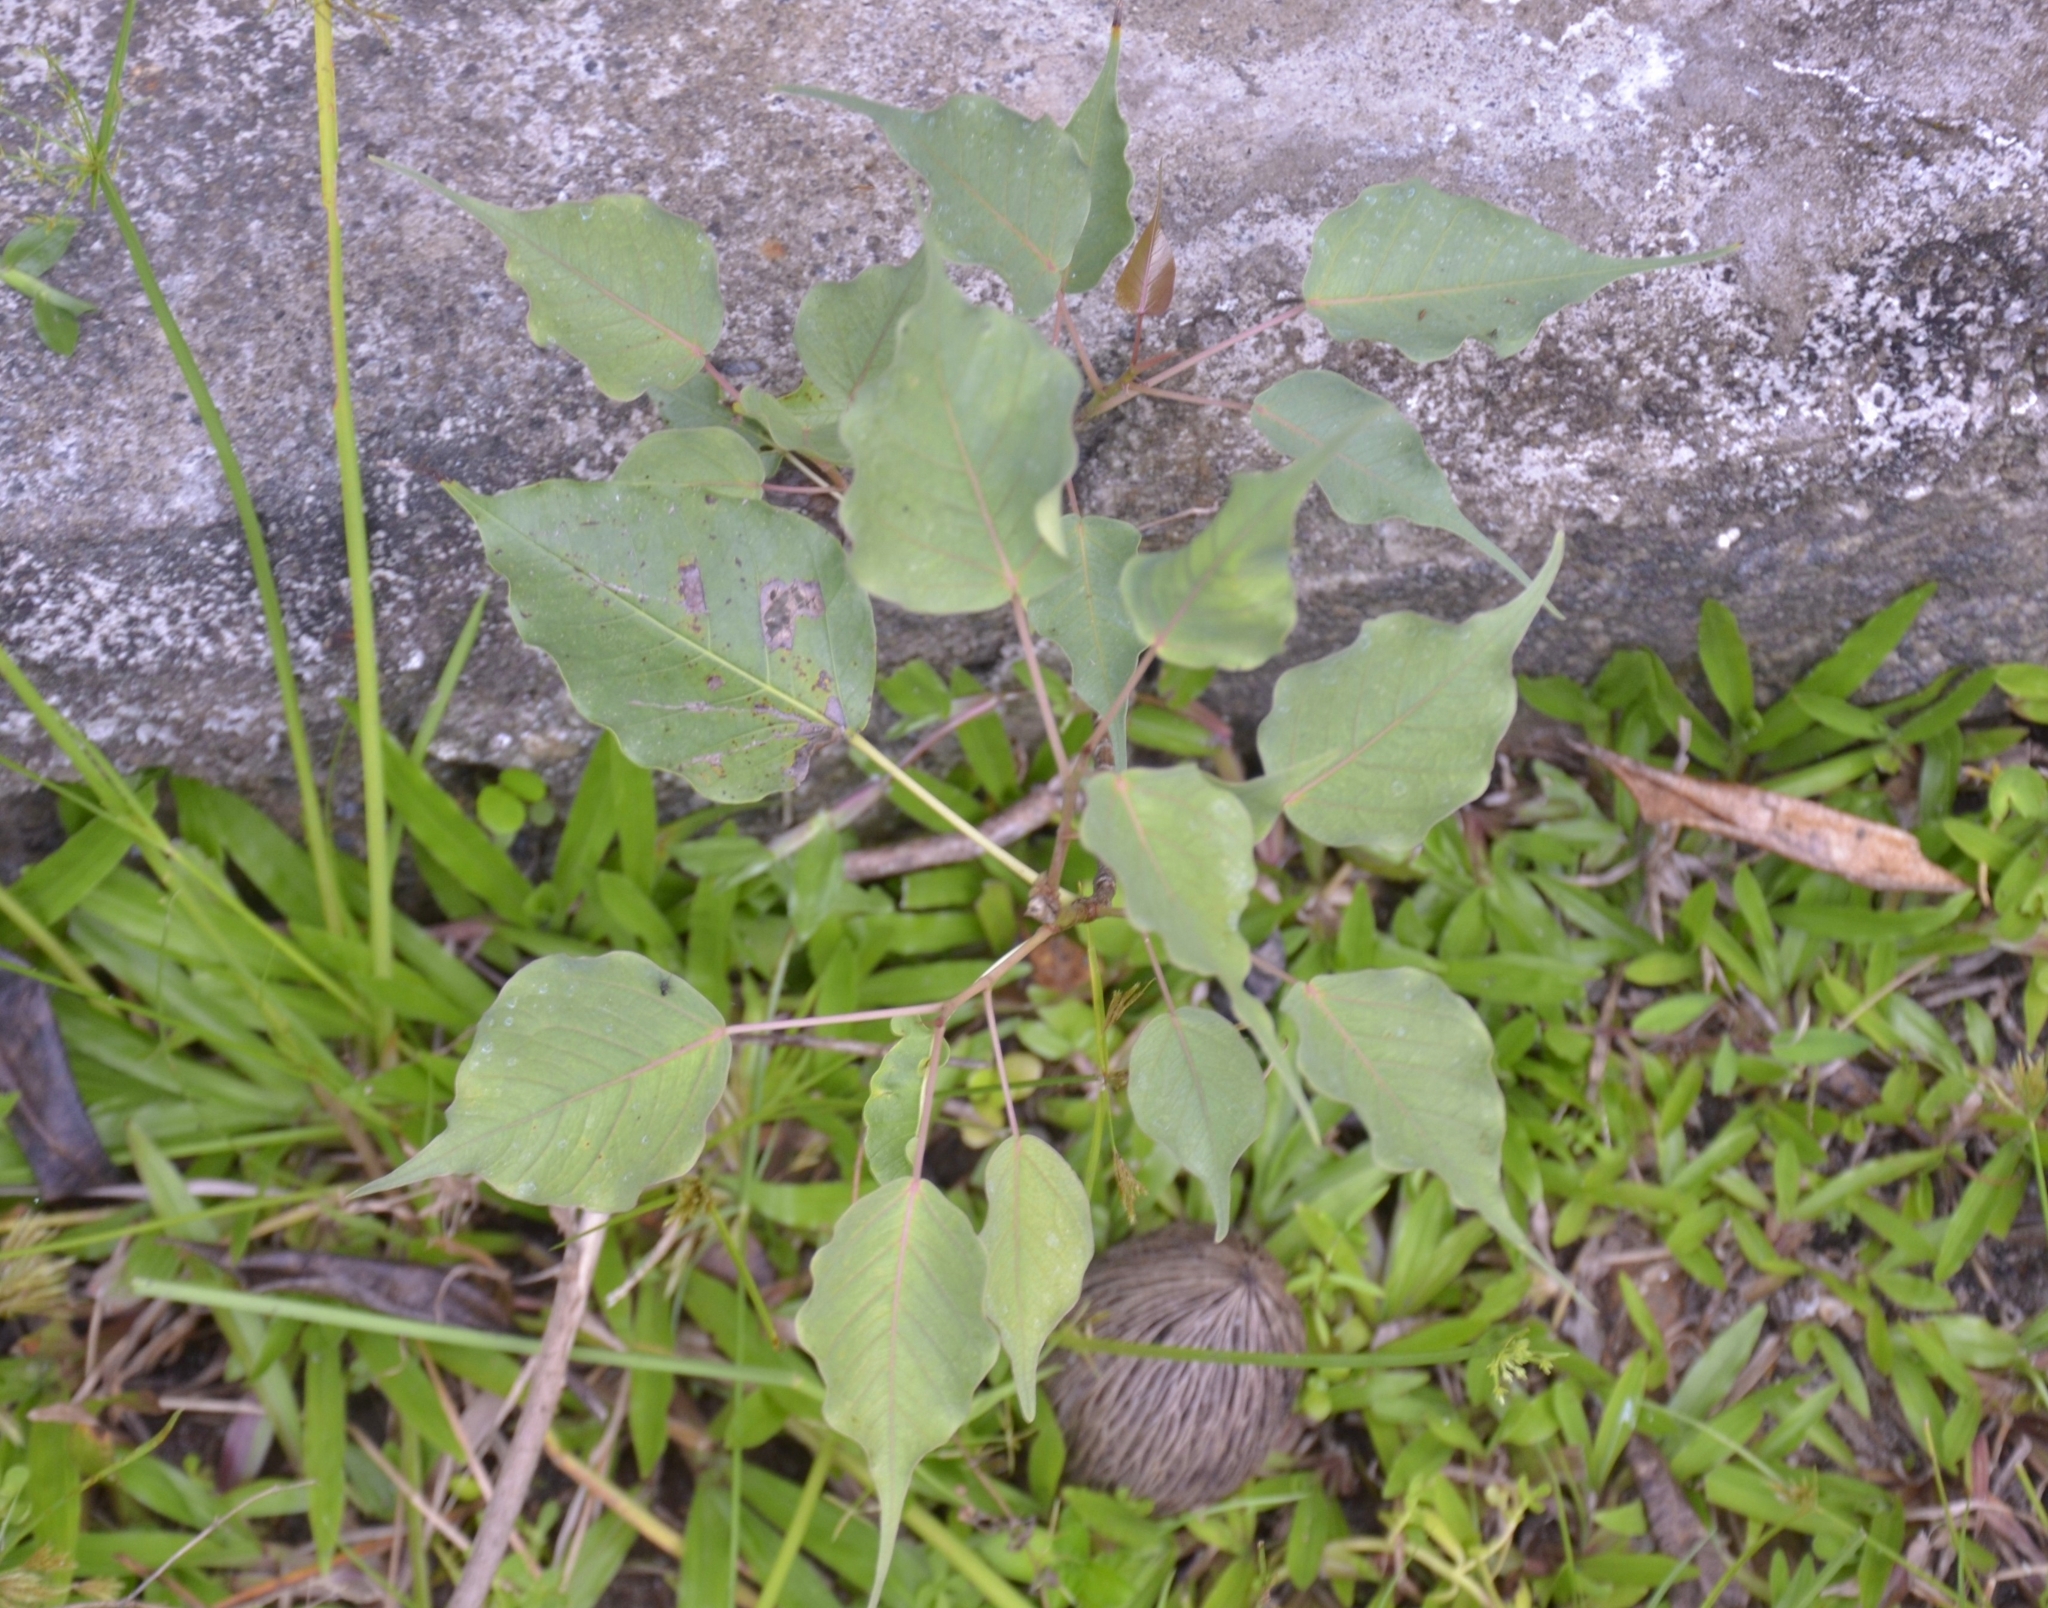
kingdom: Plantae
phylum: Tracheophyta
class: Magnoliopsida
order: Rosales
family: Moraceae
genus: Ficus
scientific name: Ficus religiosa
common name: Bodhi tree
